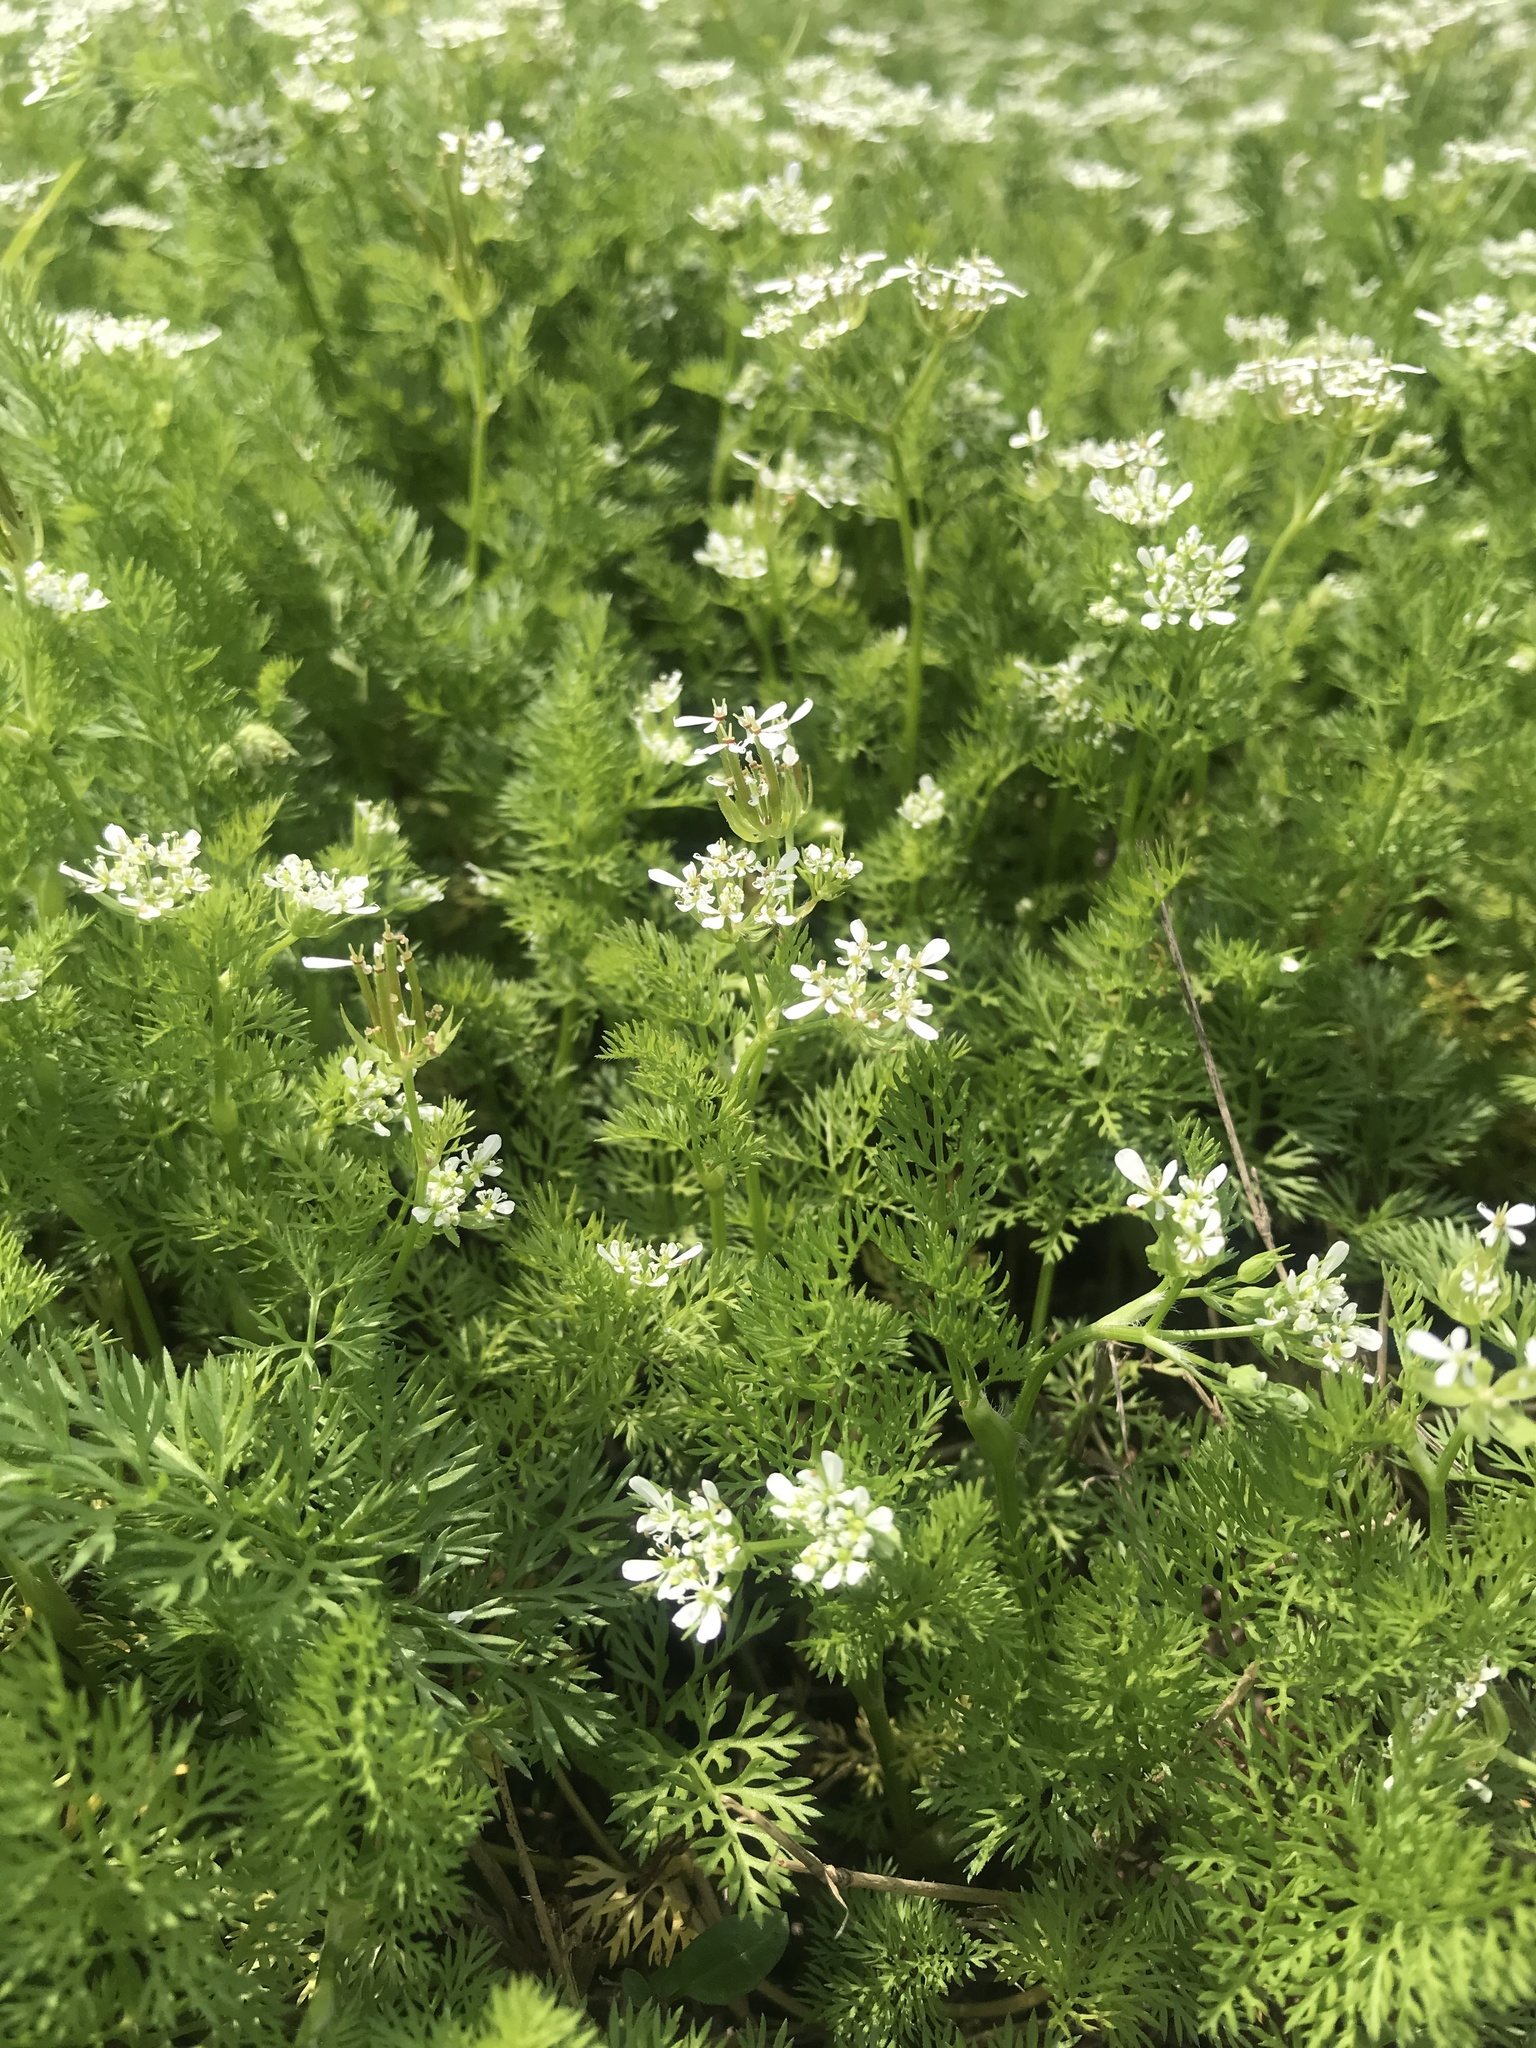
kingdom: Plantae
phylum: Tracheophyta
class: Magnoliopsida
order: Apiales
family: Apiaceae
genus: Scandix
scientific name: Scandix pecten-veneris
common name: Shepherd's-needle
